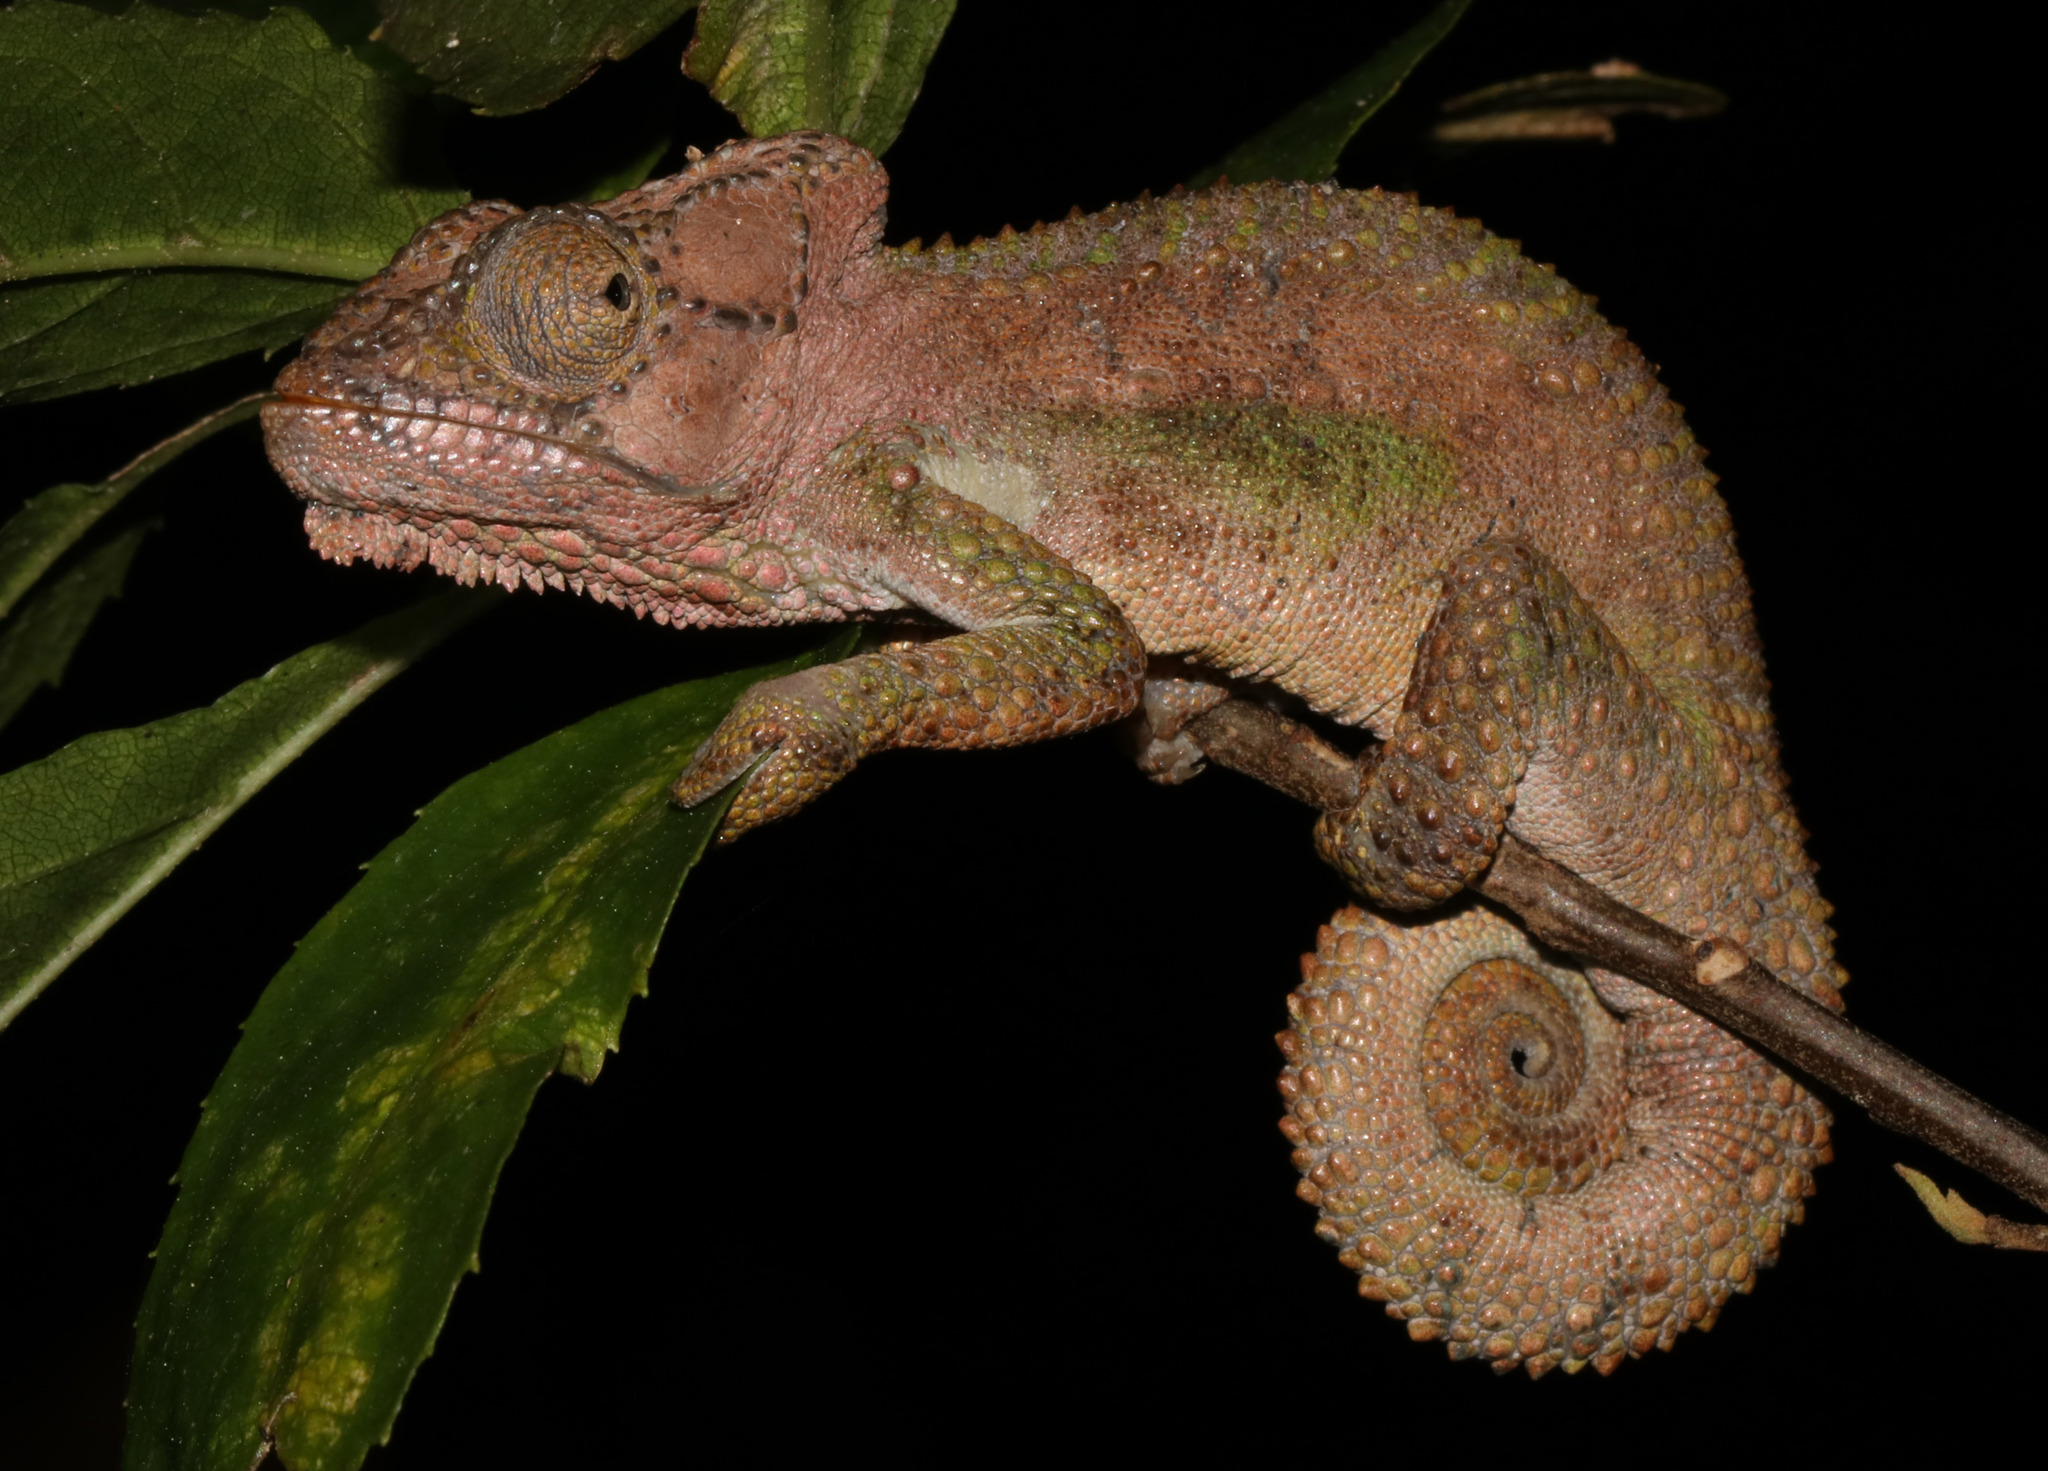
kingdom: Animalia
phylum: Chordata
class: Squamata
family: Chamaeleonidae
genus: Bradypodion
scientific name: Bradypodion damaranum
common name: Knysna dwarf chameleon
